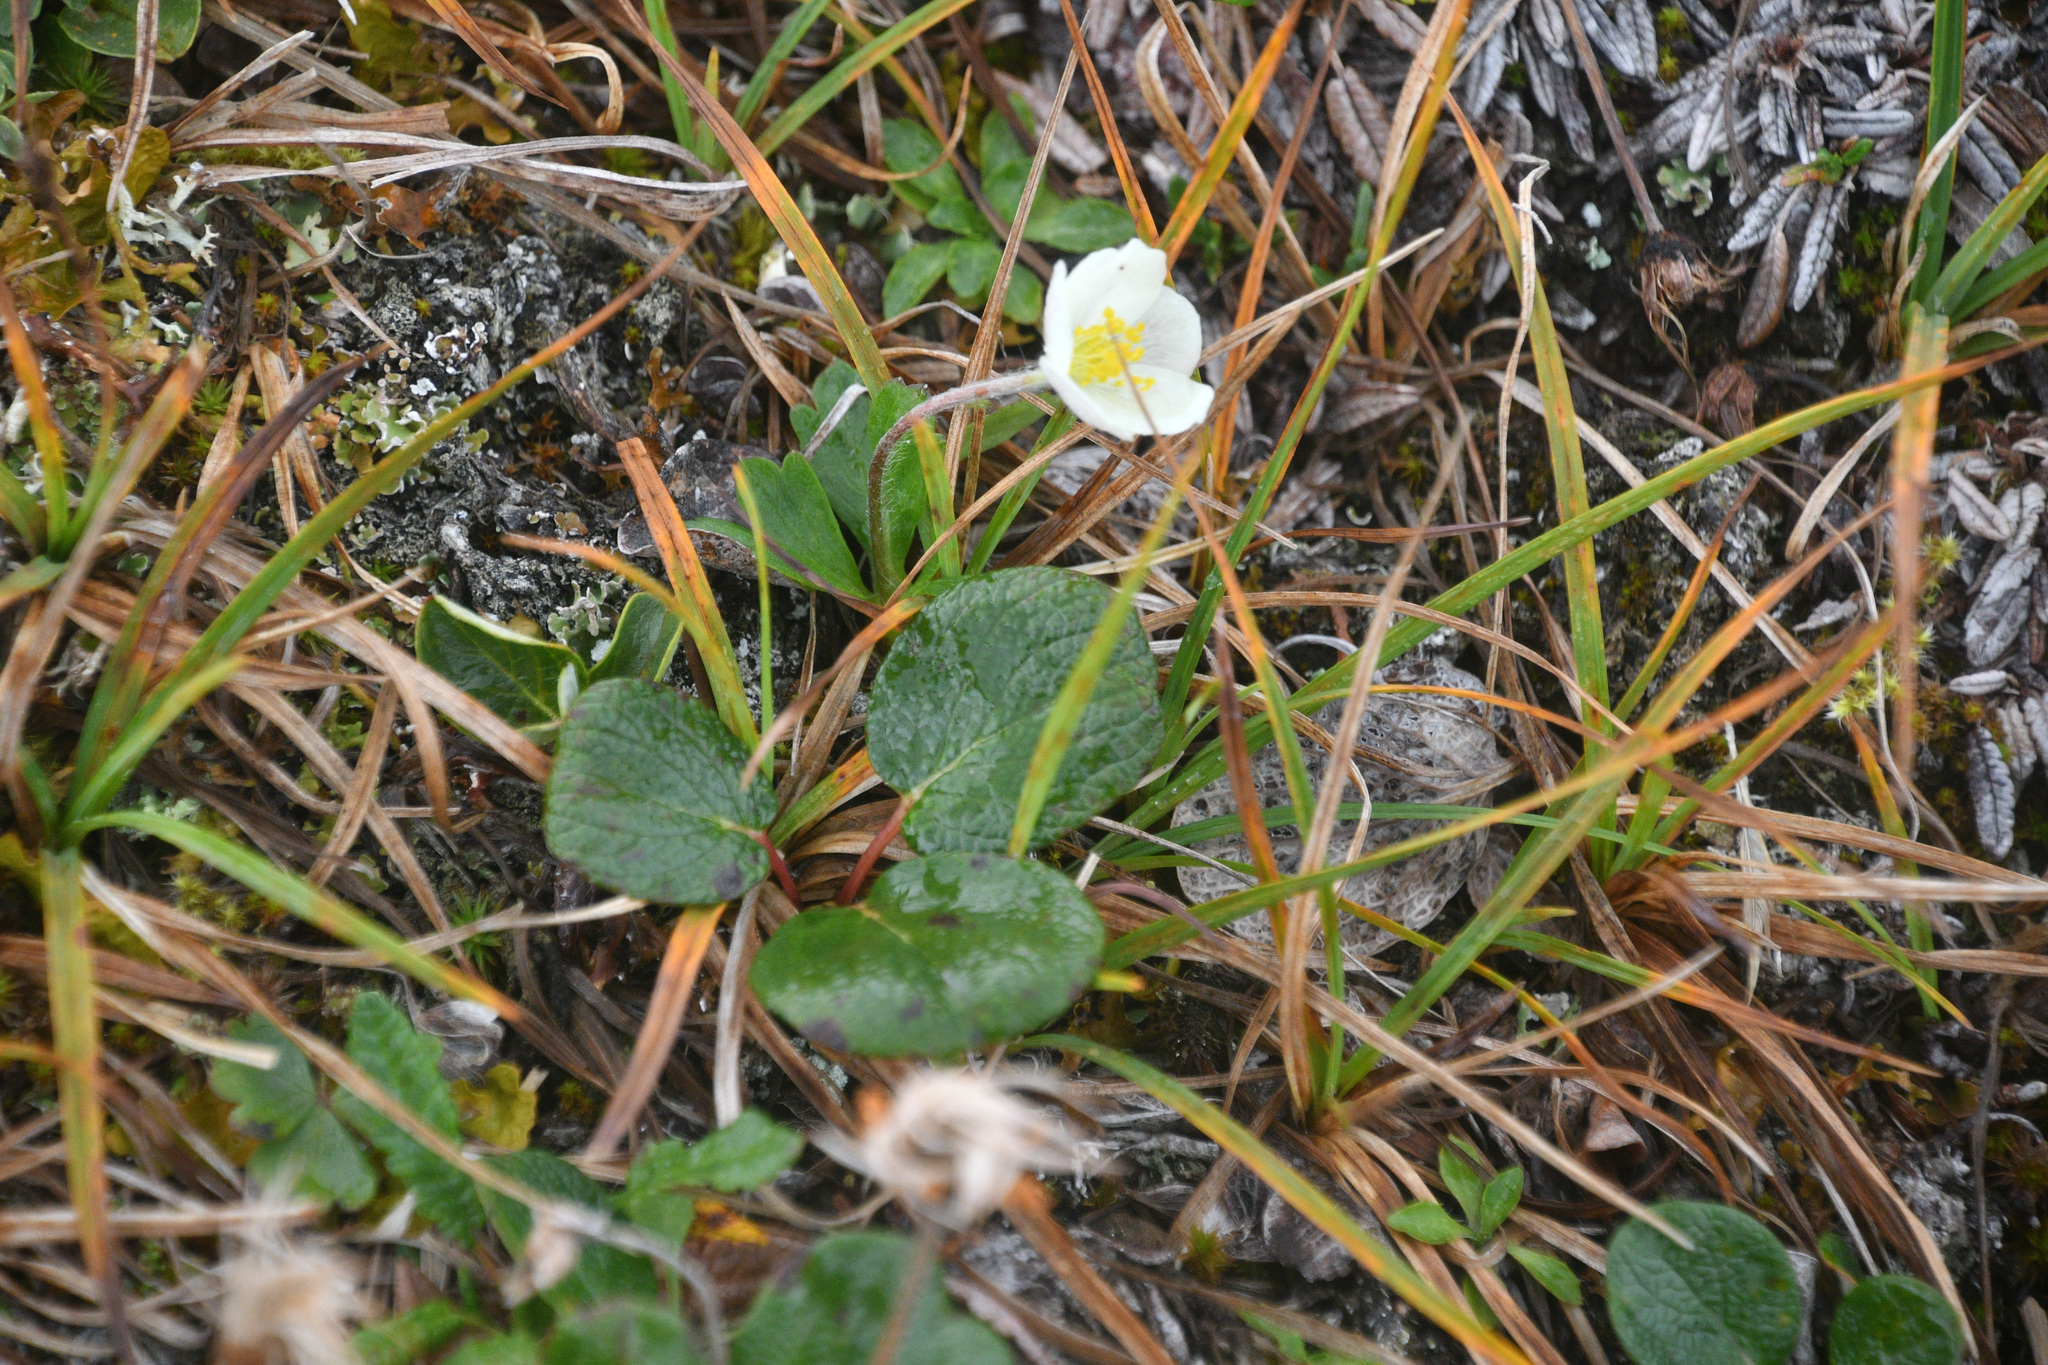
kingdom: Plantae
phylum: Tracheophyta
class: Magnoliopsida
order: Ranunculales
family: Ranunculaceae
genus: Anemone
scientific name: Anemone parviflora
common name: Northern anemone
